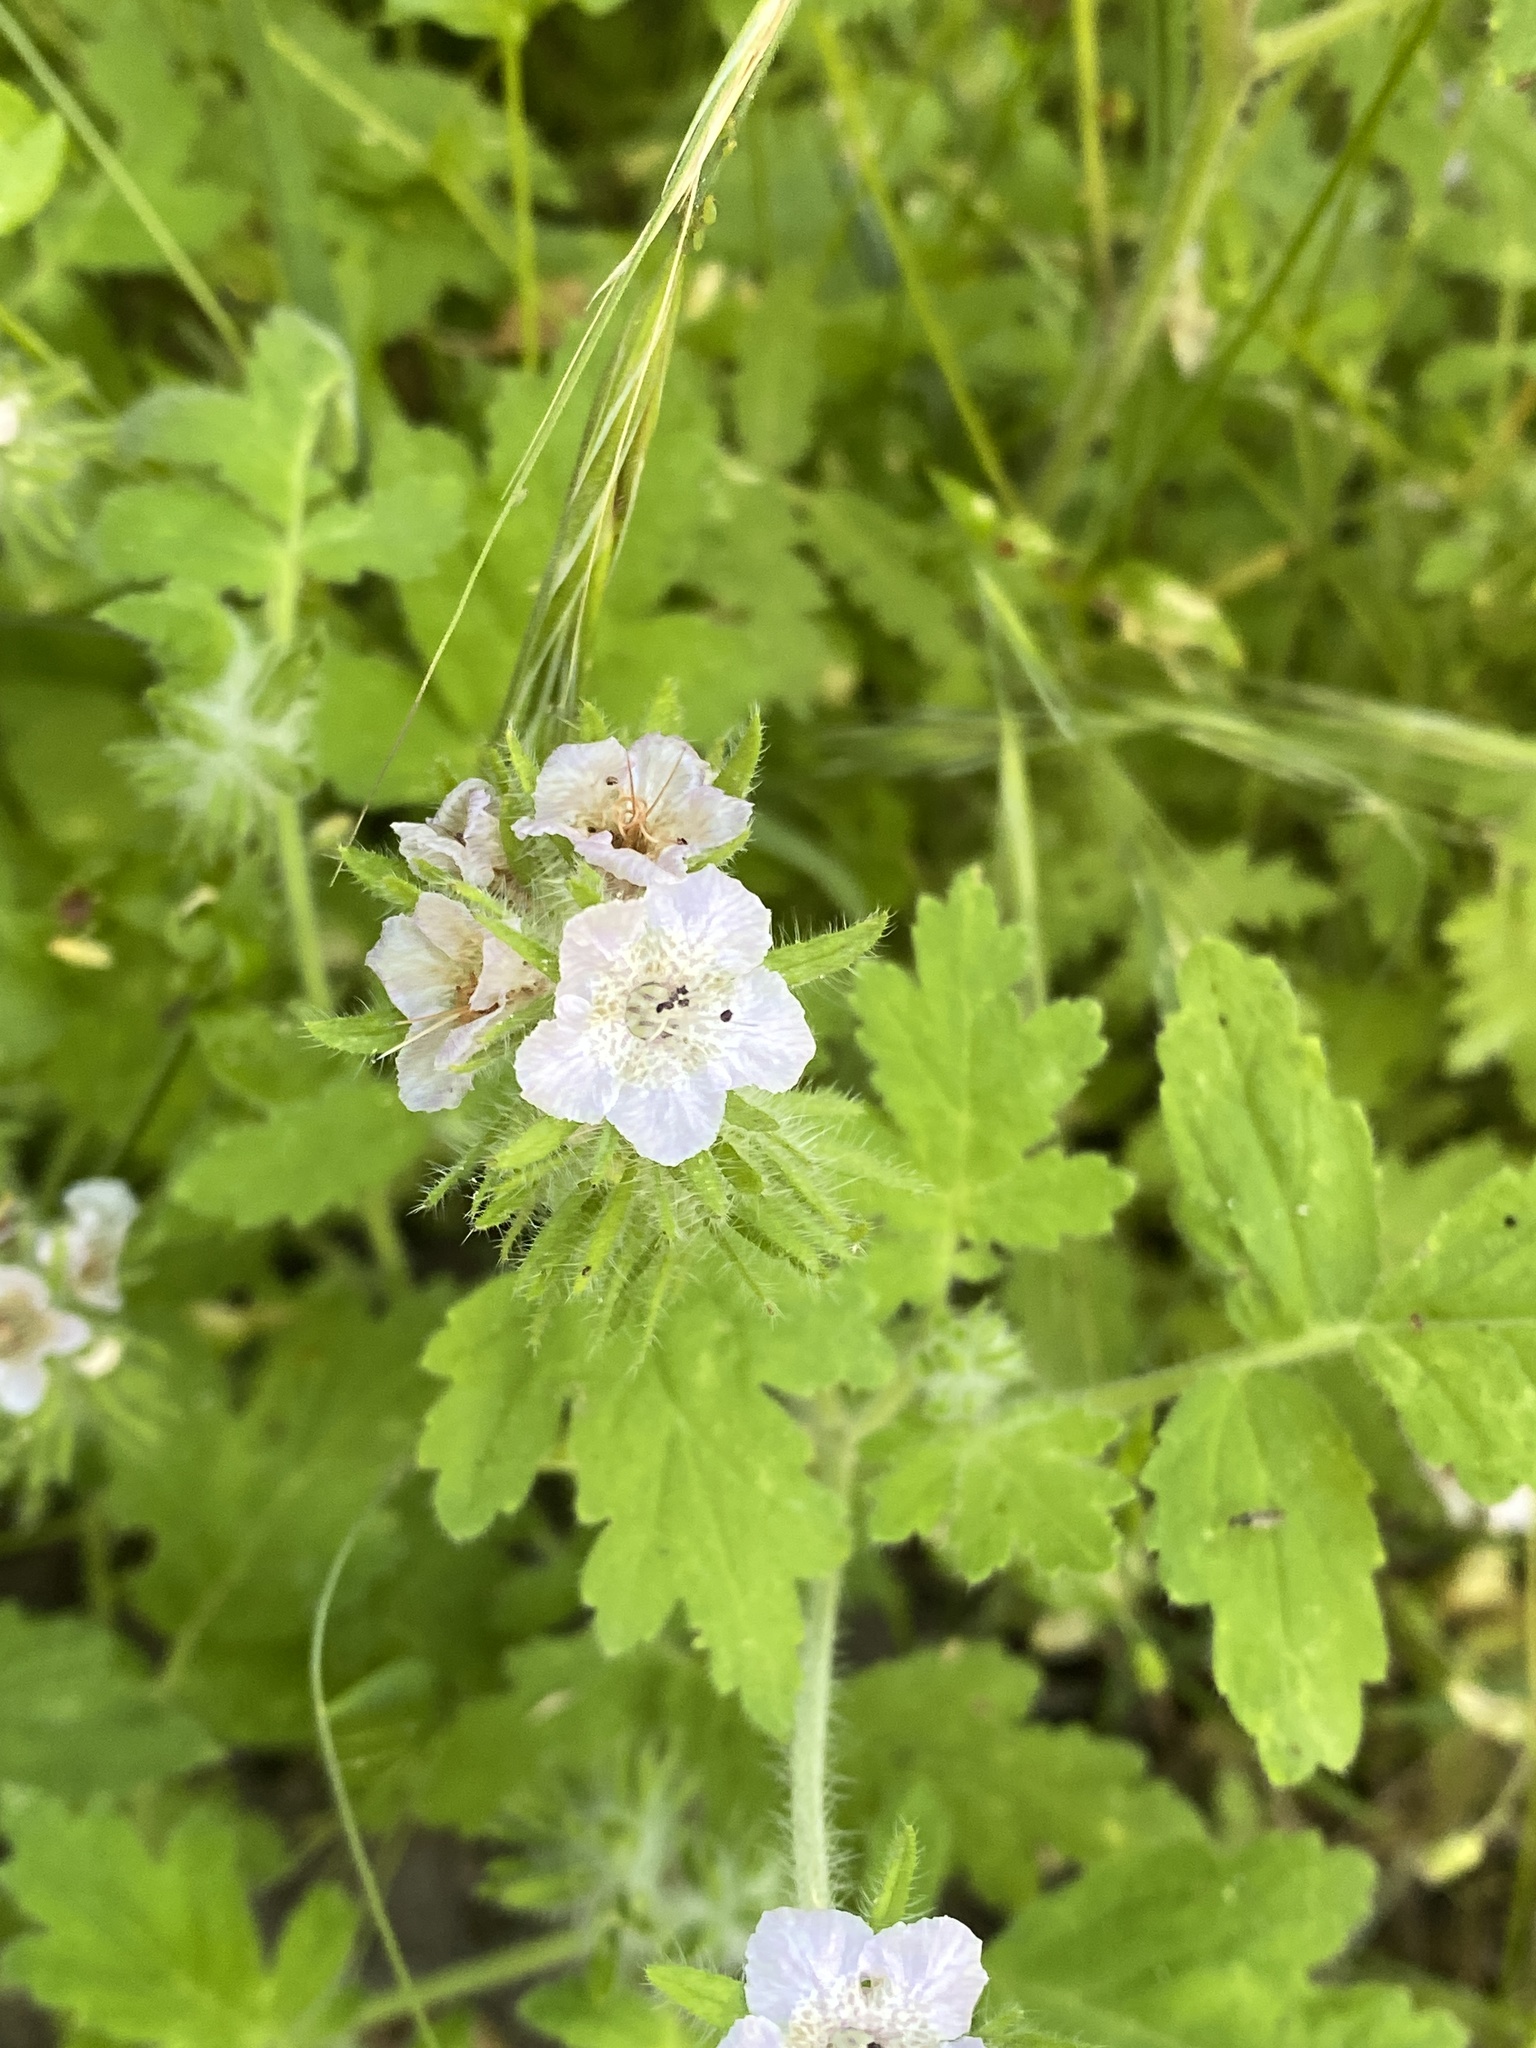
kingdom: Plantae
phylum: Tracheophyta
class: Magnoliopsida
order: Boraginales
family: Hydrophyllaceae
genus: Phacelia
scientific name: Phacelia cicutaria
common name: Caterpillar phacelia
